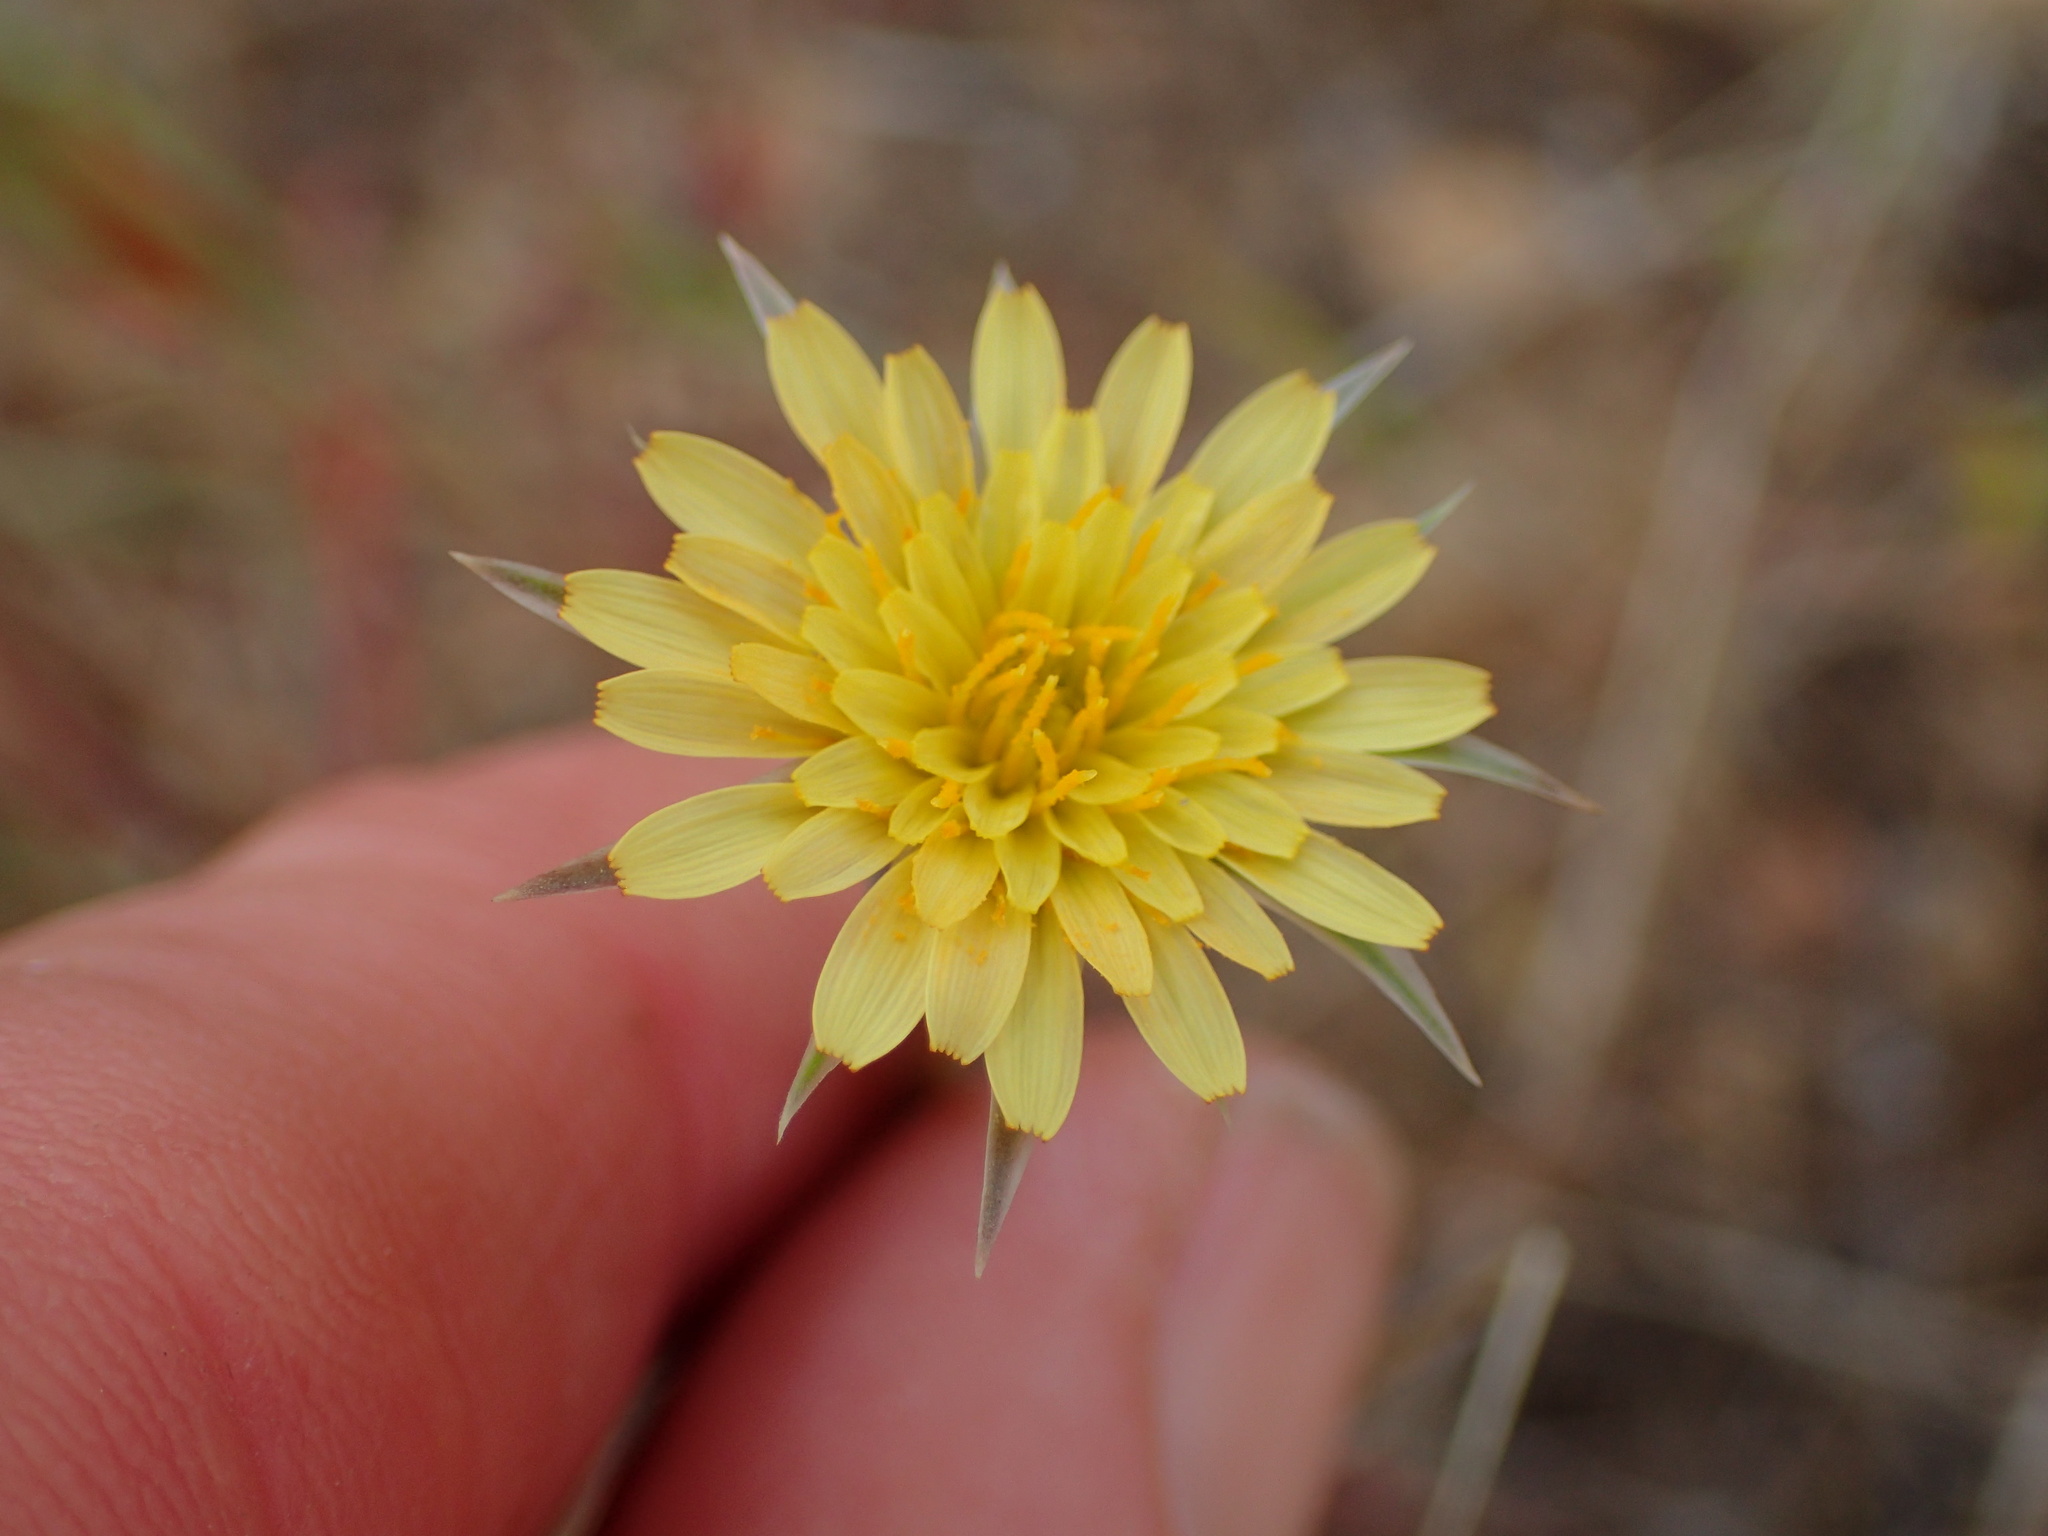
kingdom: Plantae
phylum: Tracheophyta
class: Magnoliopsida
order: Asterales
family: Asteraceae
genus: Microseris
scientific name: Microseris lindleyi
